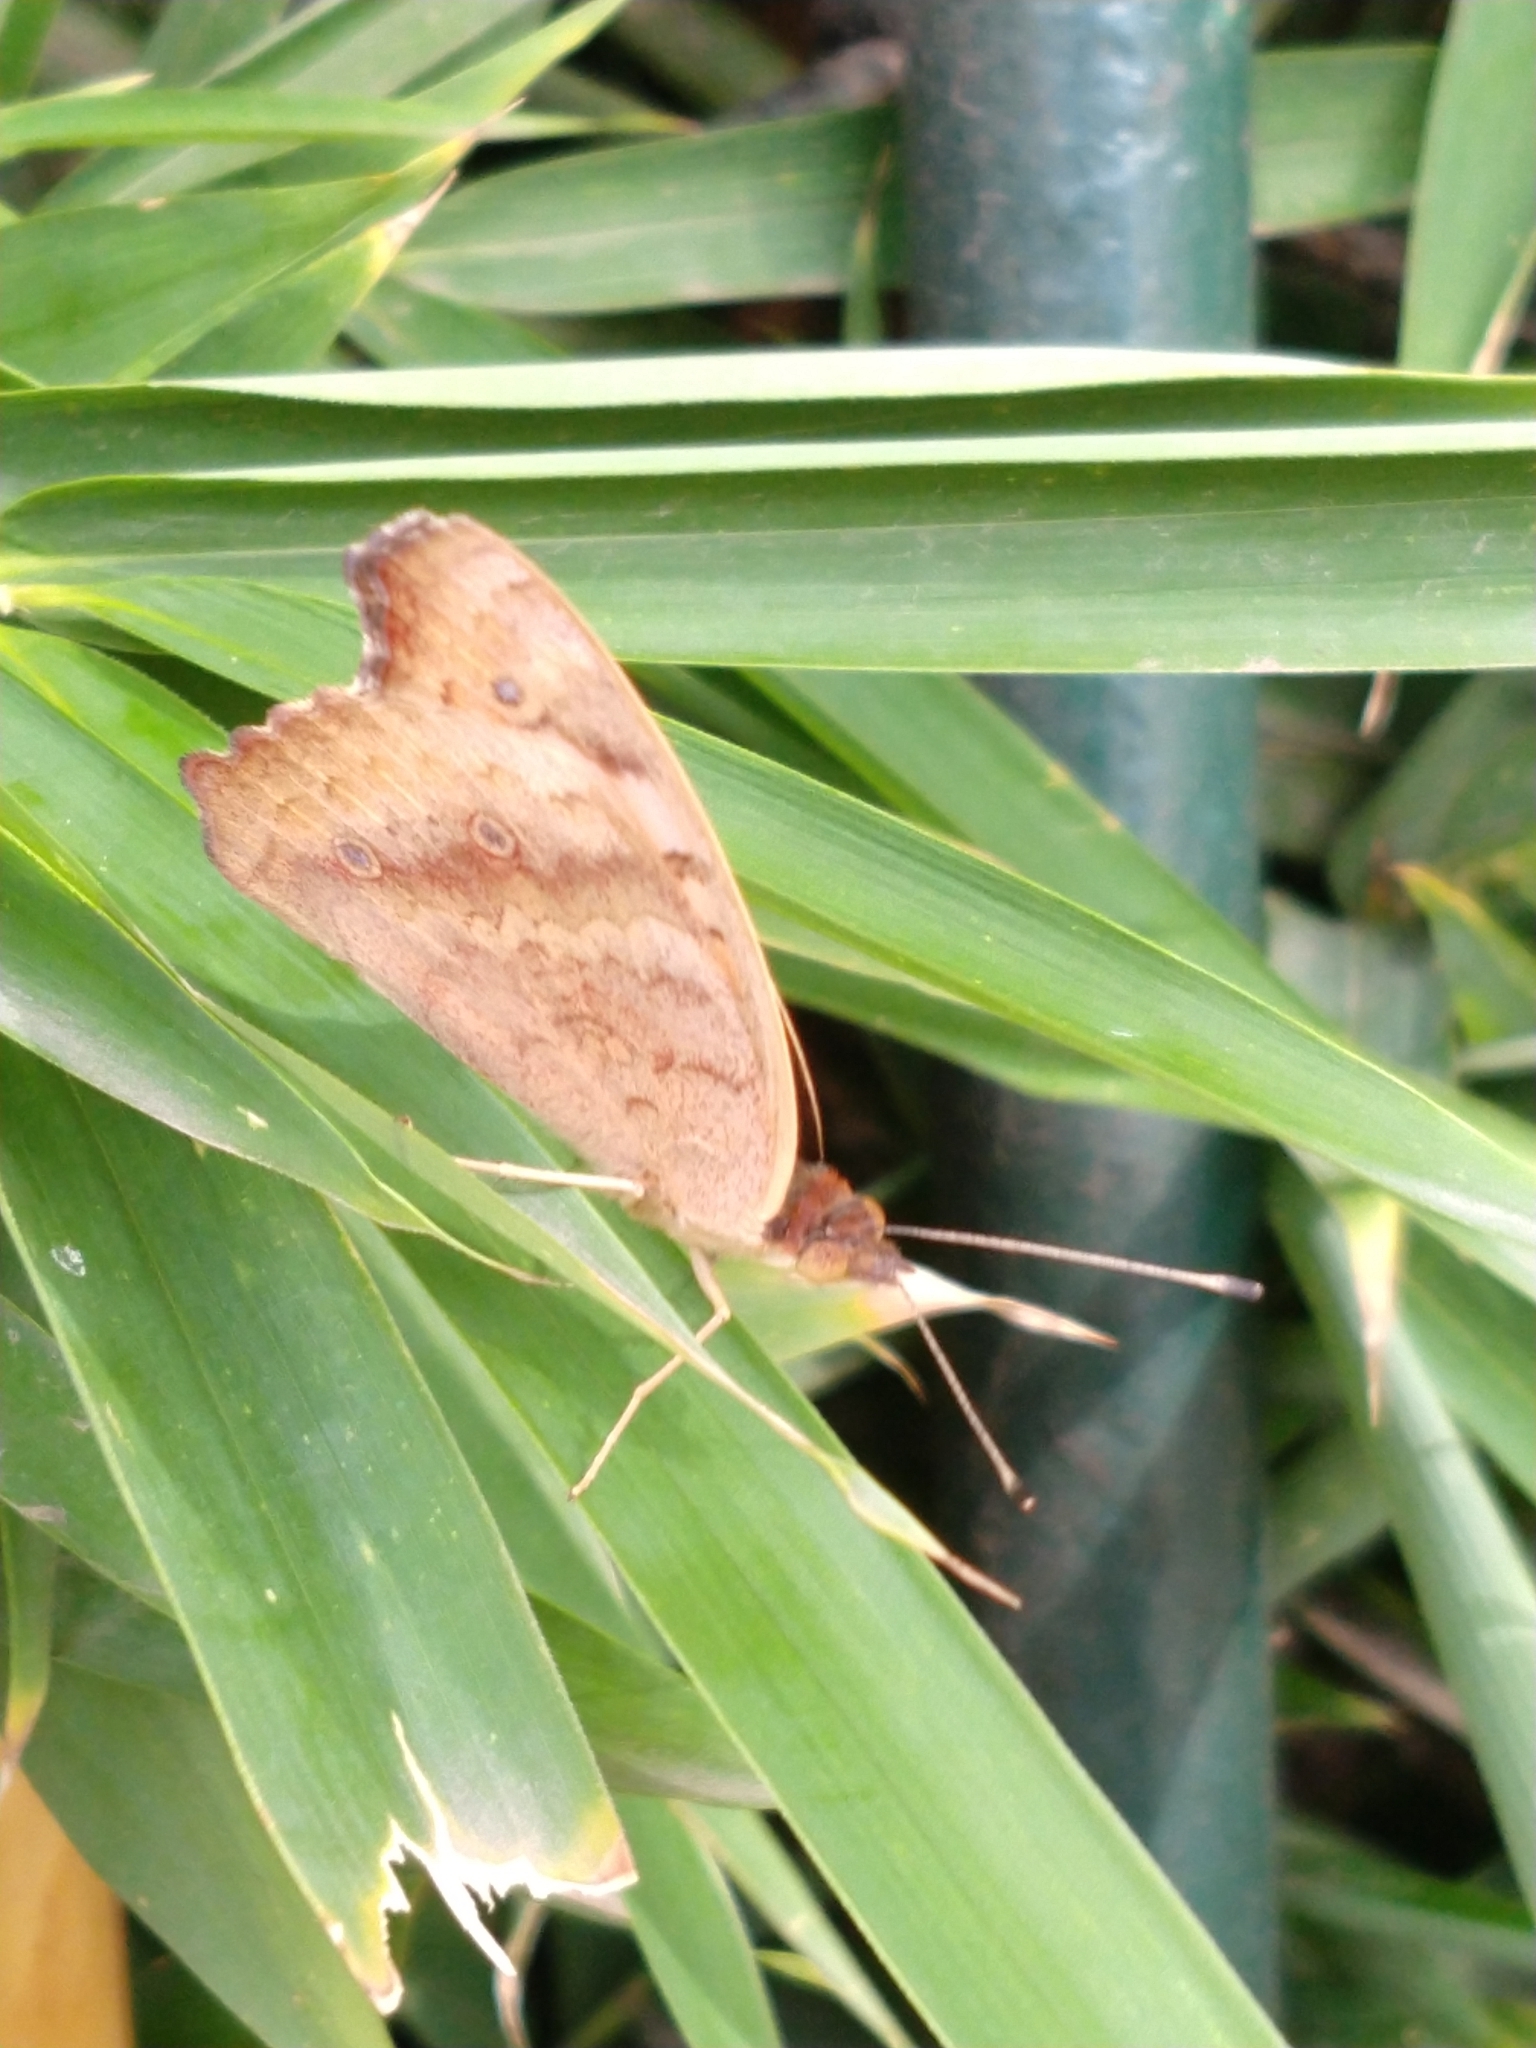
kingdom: Animalia
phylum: Arthropoda
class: Insecta
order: Lepidoptera
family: Nymphalidae
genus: Junonia
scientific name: Junonia lavinia
